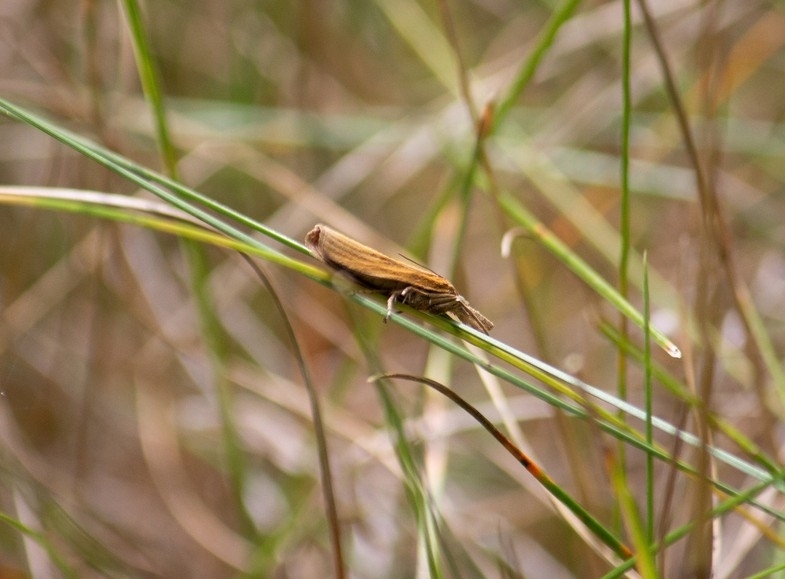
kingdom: Animalia
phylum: Arthropoda
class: Insecta
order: Lepidoptera
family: Crambidae
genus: Agriphila
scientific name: Agriphila tristellus
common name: Common grass-veneer
